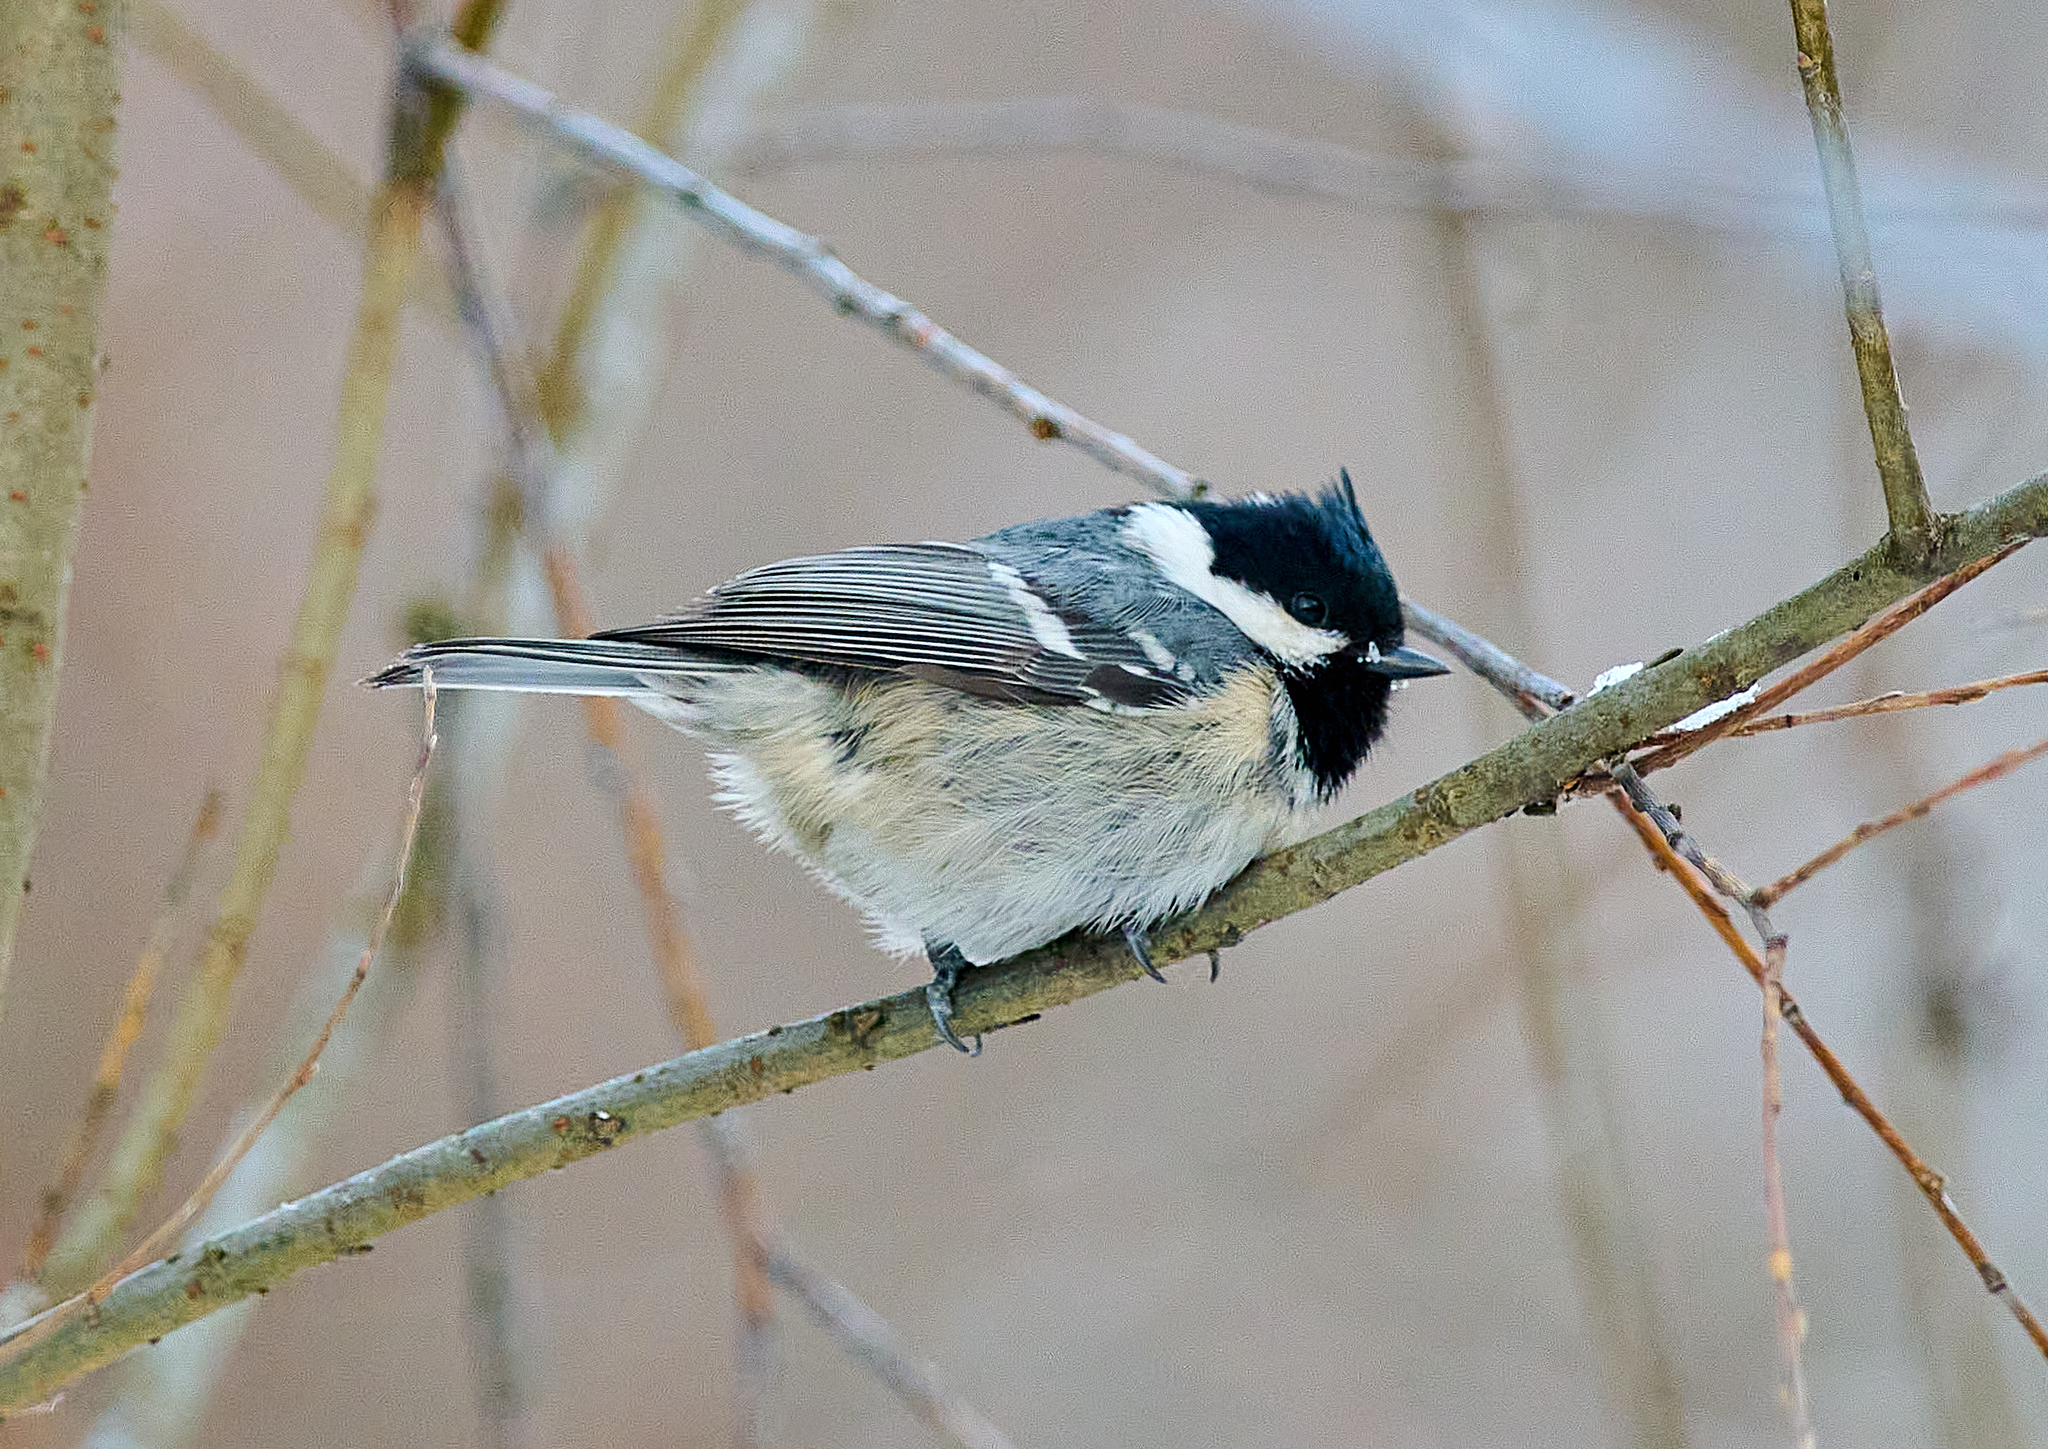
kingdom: Animalia
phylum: Chordata
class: Aves
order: Passeriformes
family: Paridae
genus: Periparus
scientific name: Periparus ater
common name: Coal tit
